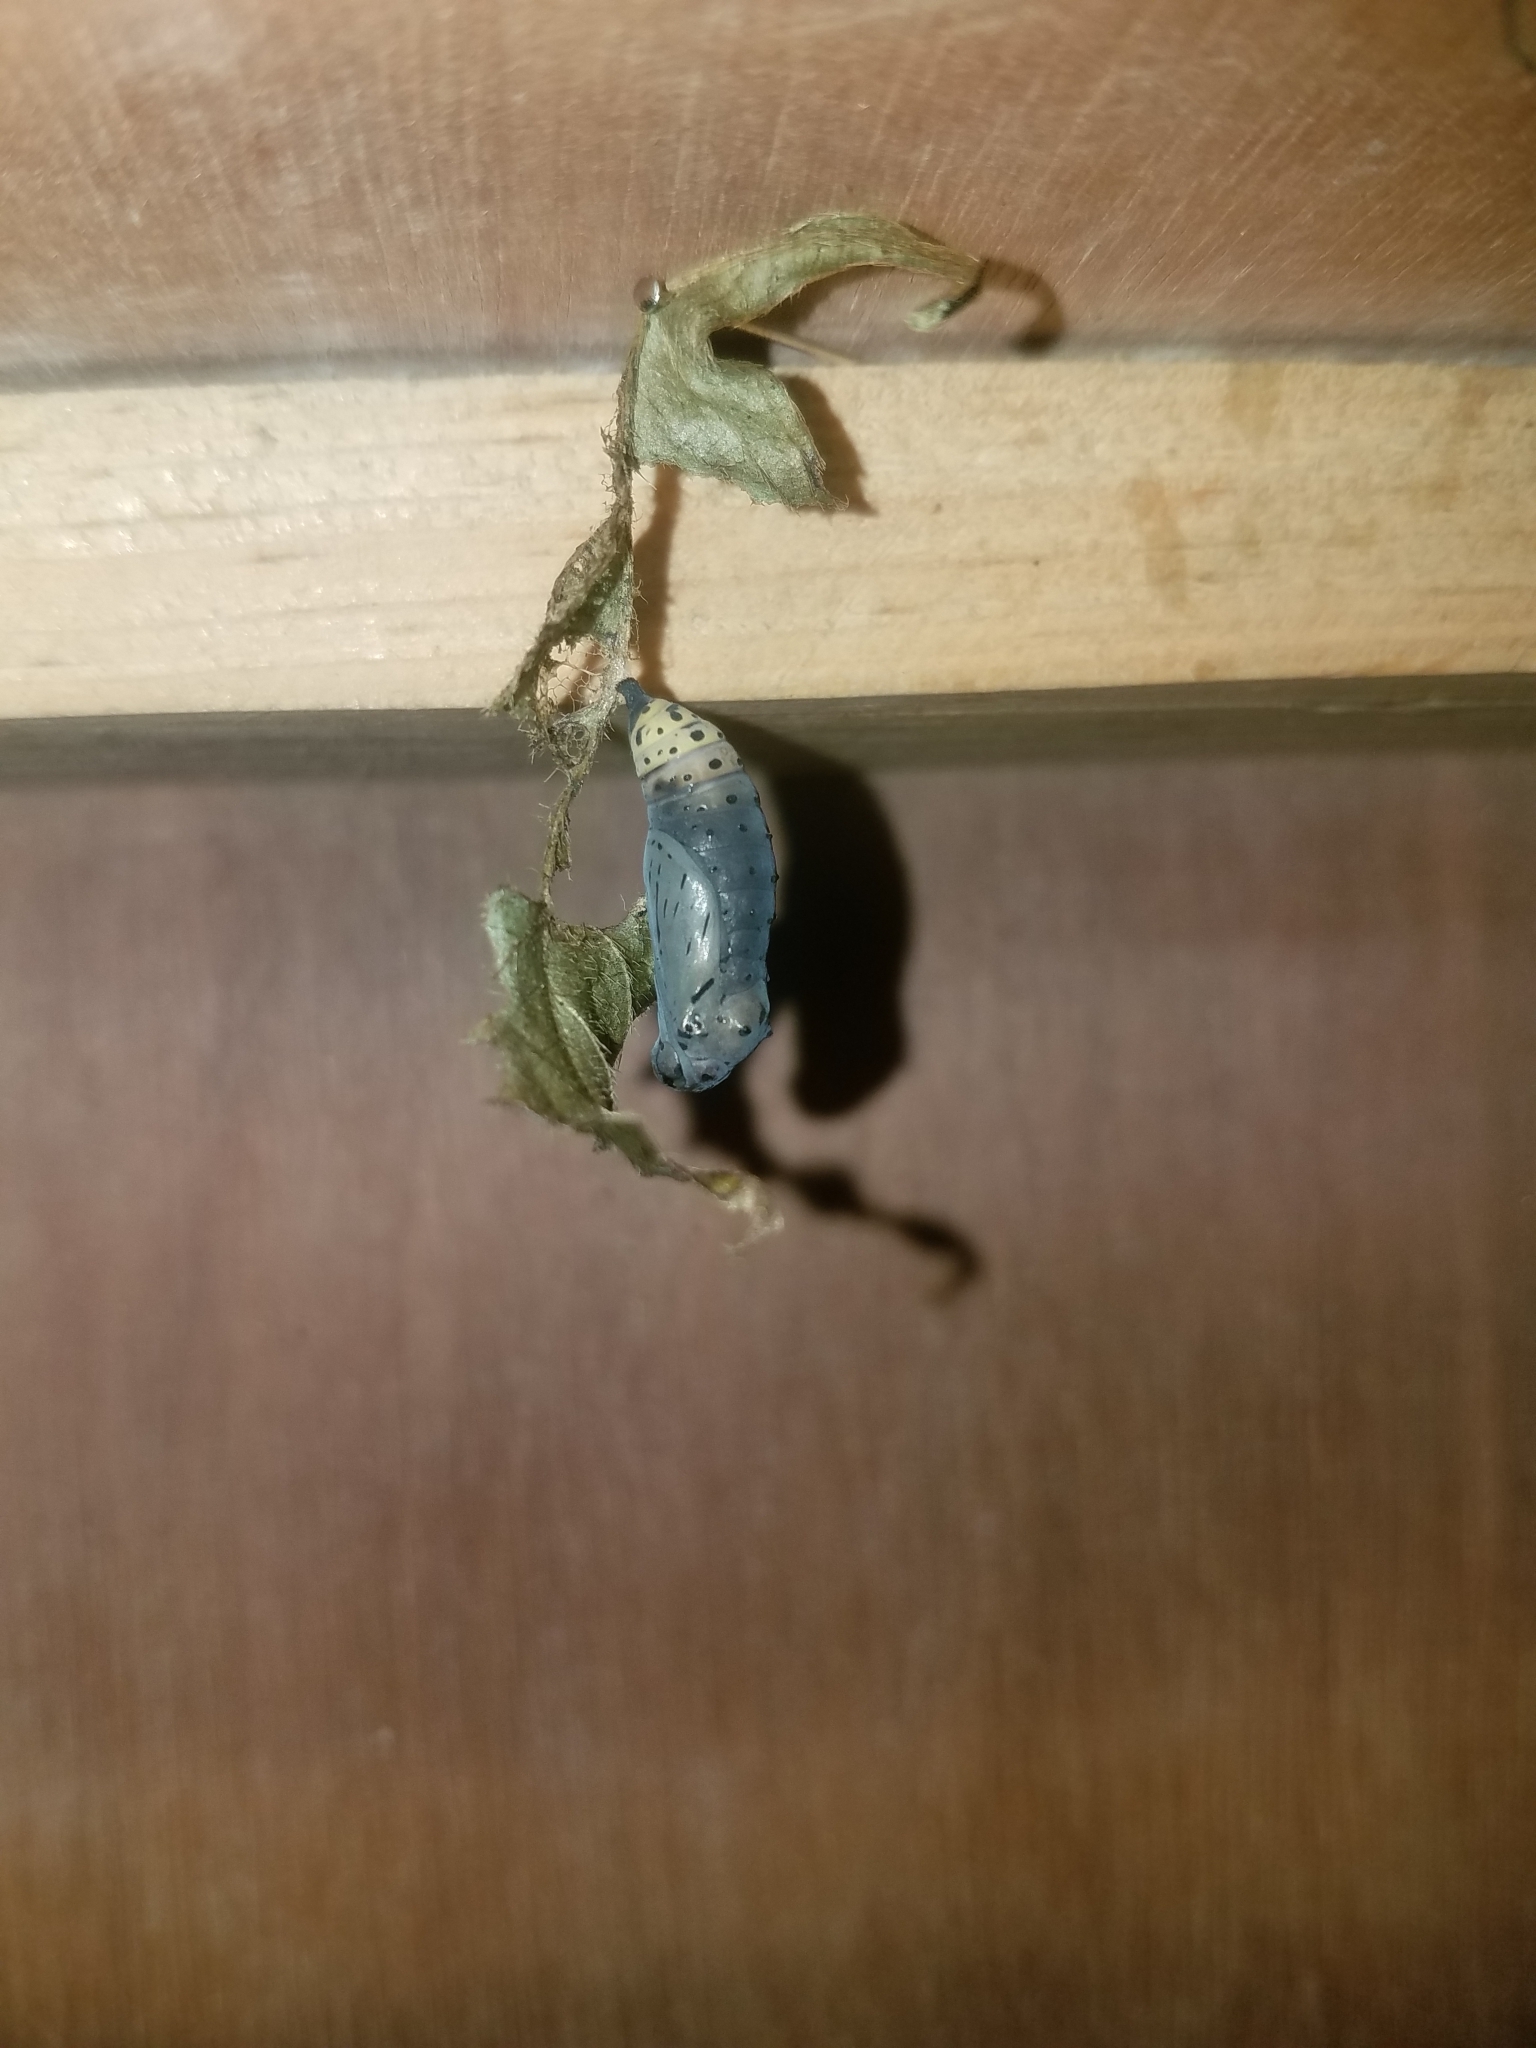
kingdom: Animalia
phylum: Arthropoda
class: Insecta
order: Lepidoptera
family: Nymphalidae
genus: Chlosyne
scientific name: Chlosyne hippodrome
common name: Simple patch
